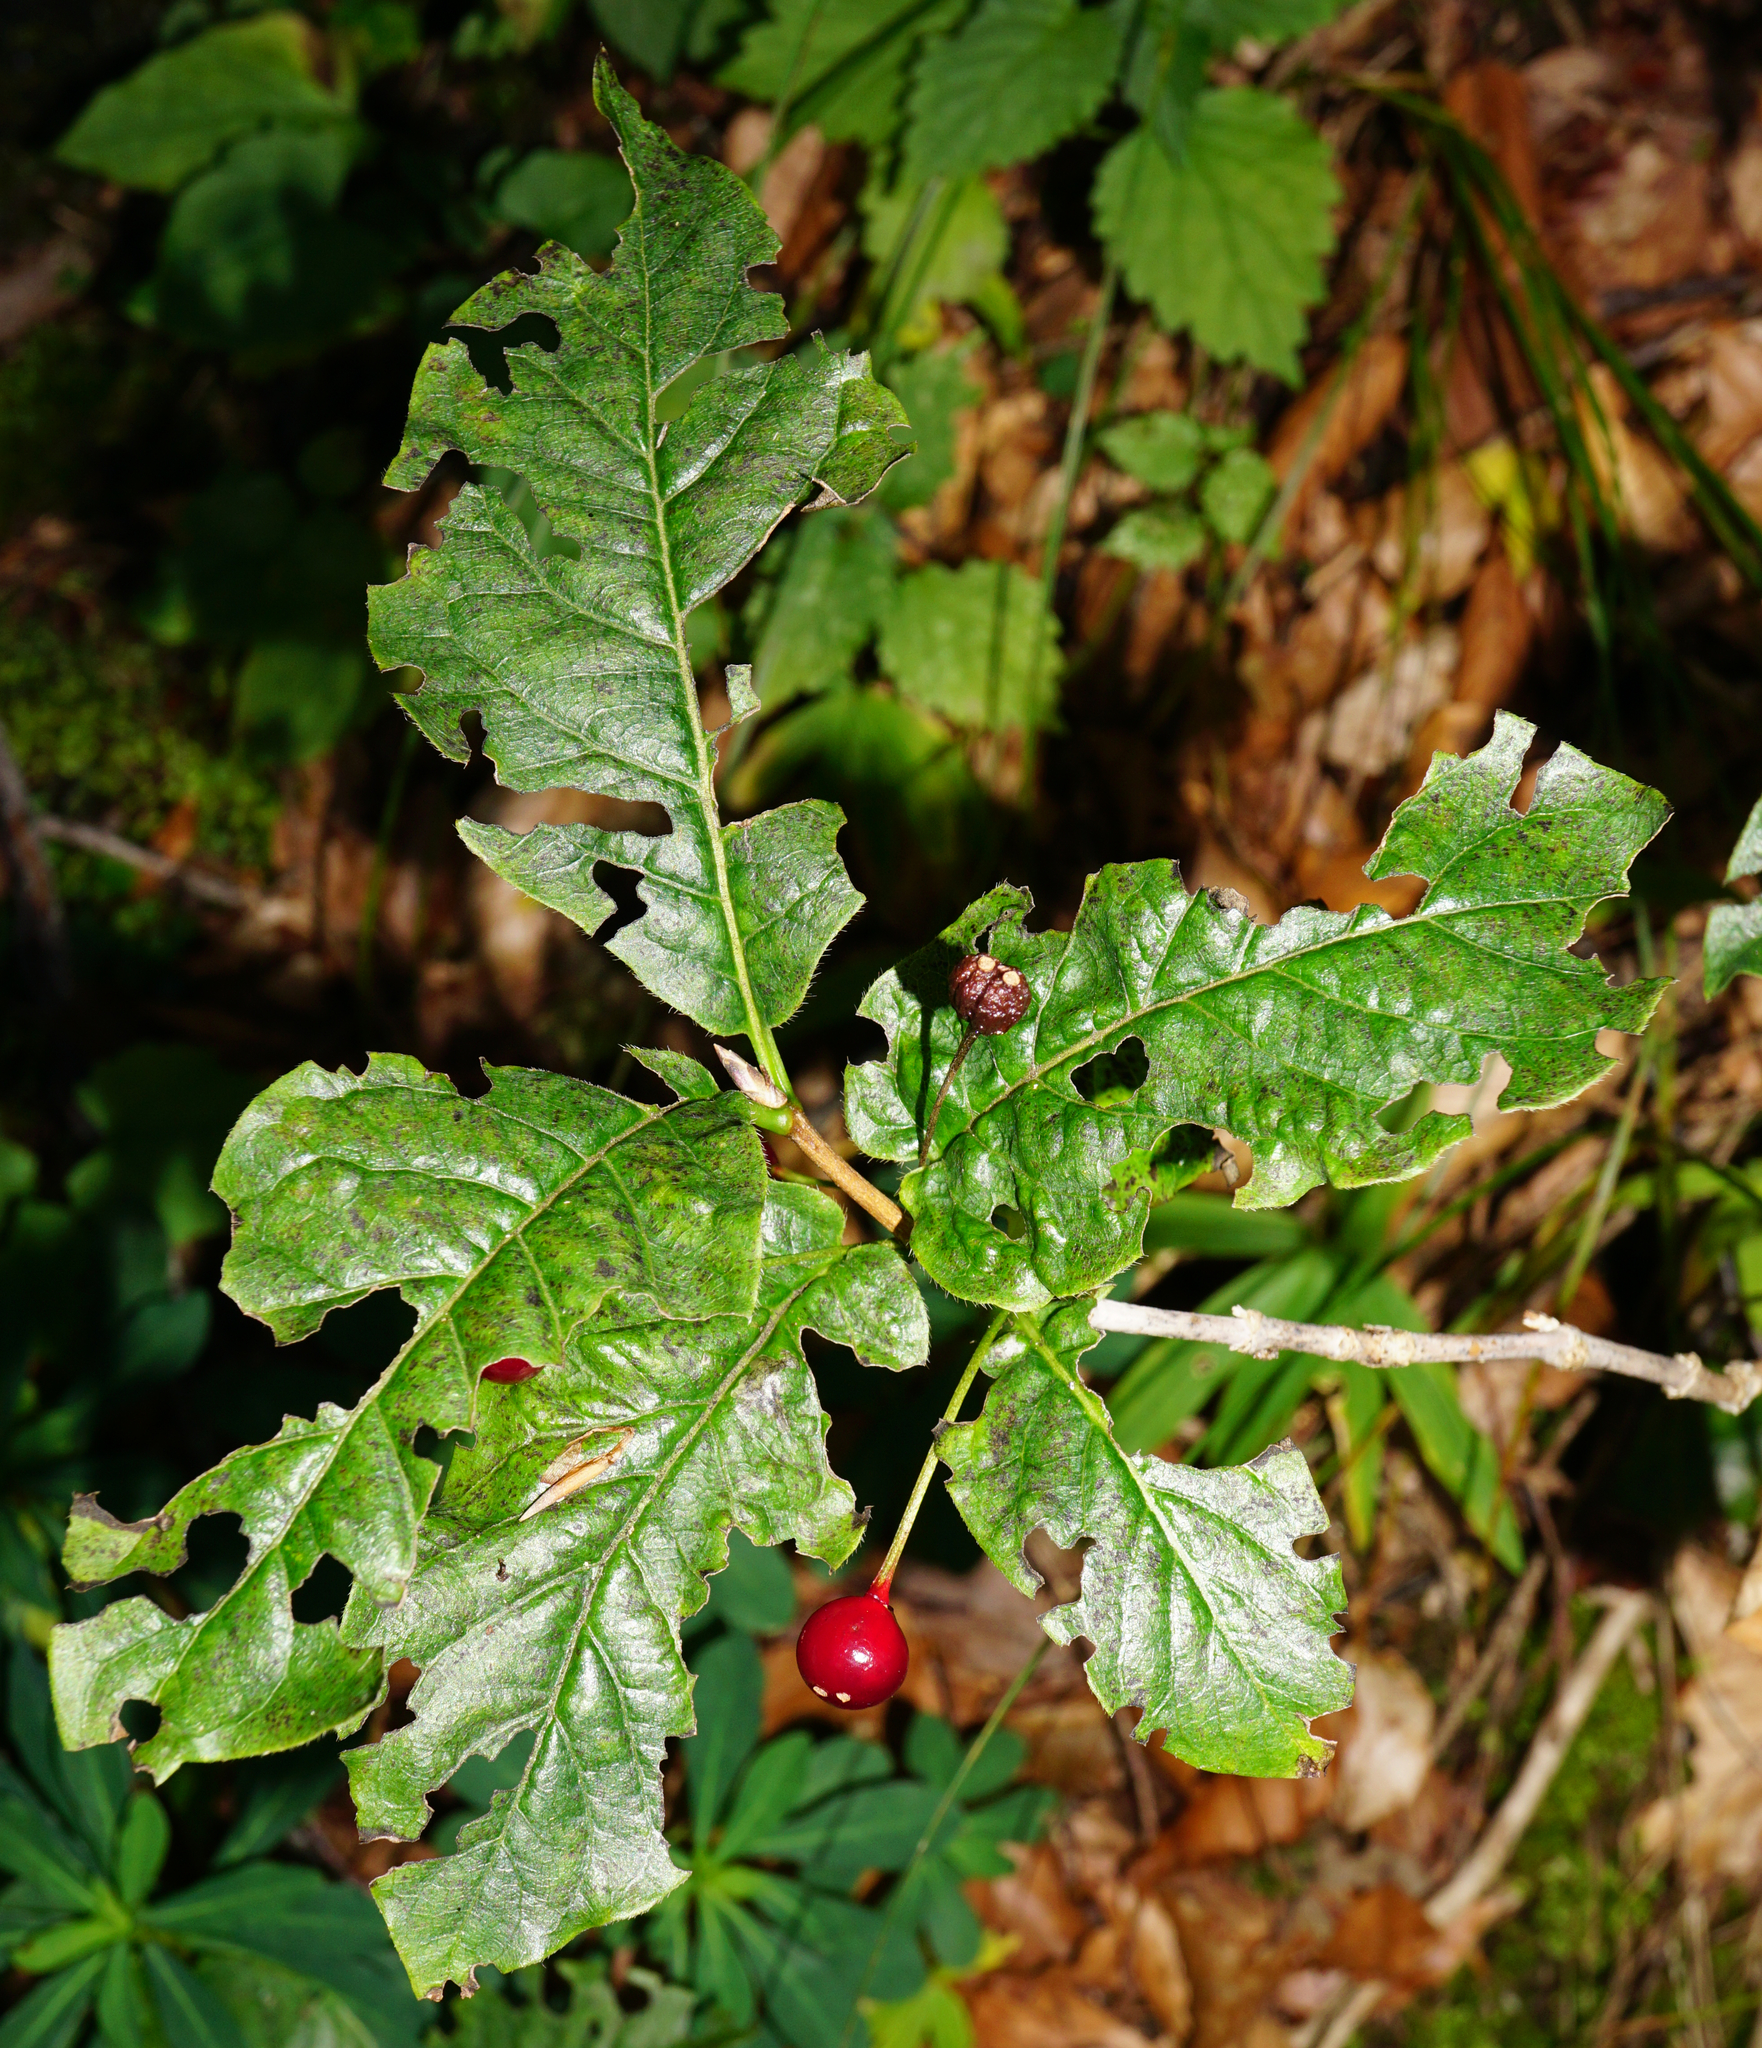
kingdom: Plantae
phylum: Tracheophyta
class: Magnoliopsida
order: Dipsacales
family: Caprifoliaceae
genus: Lonicera
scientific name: Lonicera alpigena
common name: Alpine honeysuckle
